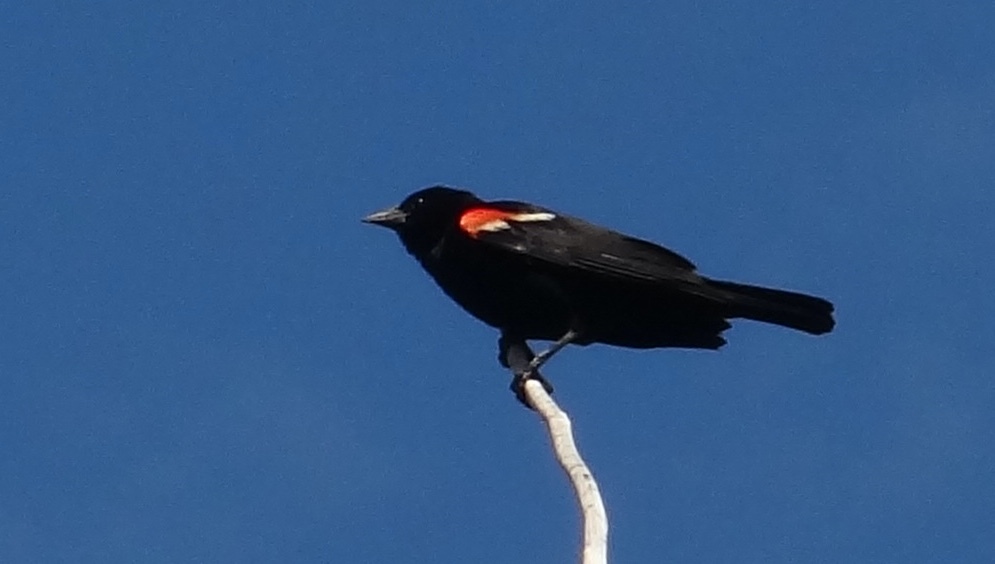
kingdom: Animalia
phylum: Chordata
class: Aves
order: Passeriformes
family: Icteridae
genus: Agelaius
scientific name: Agelaius phoeniceus
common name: Red-winged blackbird
